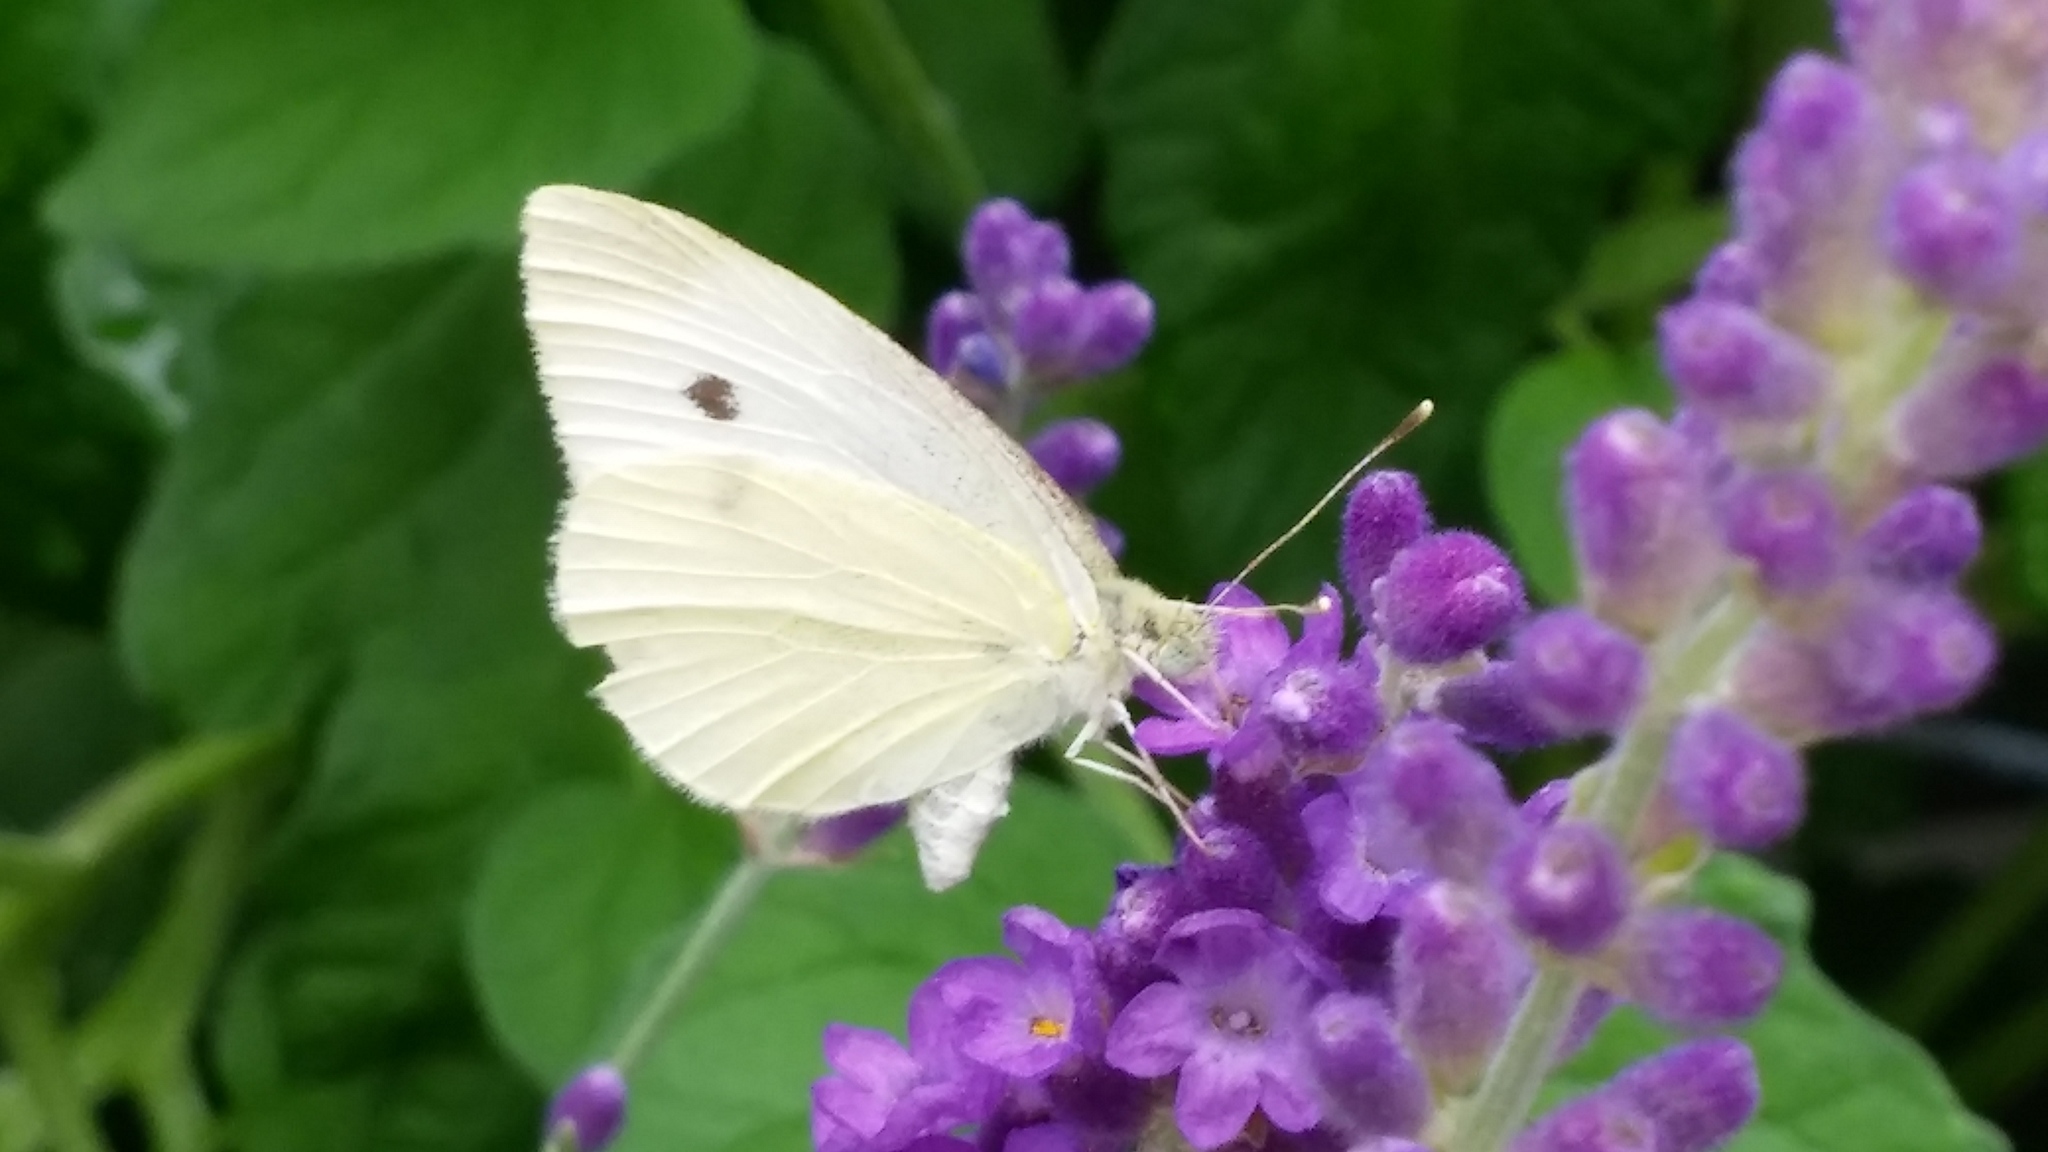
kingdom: Animalia
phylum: Arthropoda
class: Insecta
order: Lepidoptera
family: Pieridae
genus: Pieris
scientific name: Pieris rapae
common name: Small white
